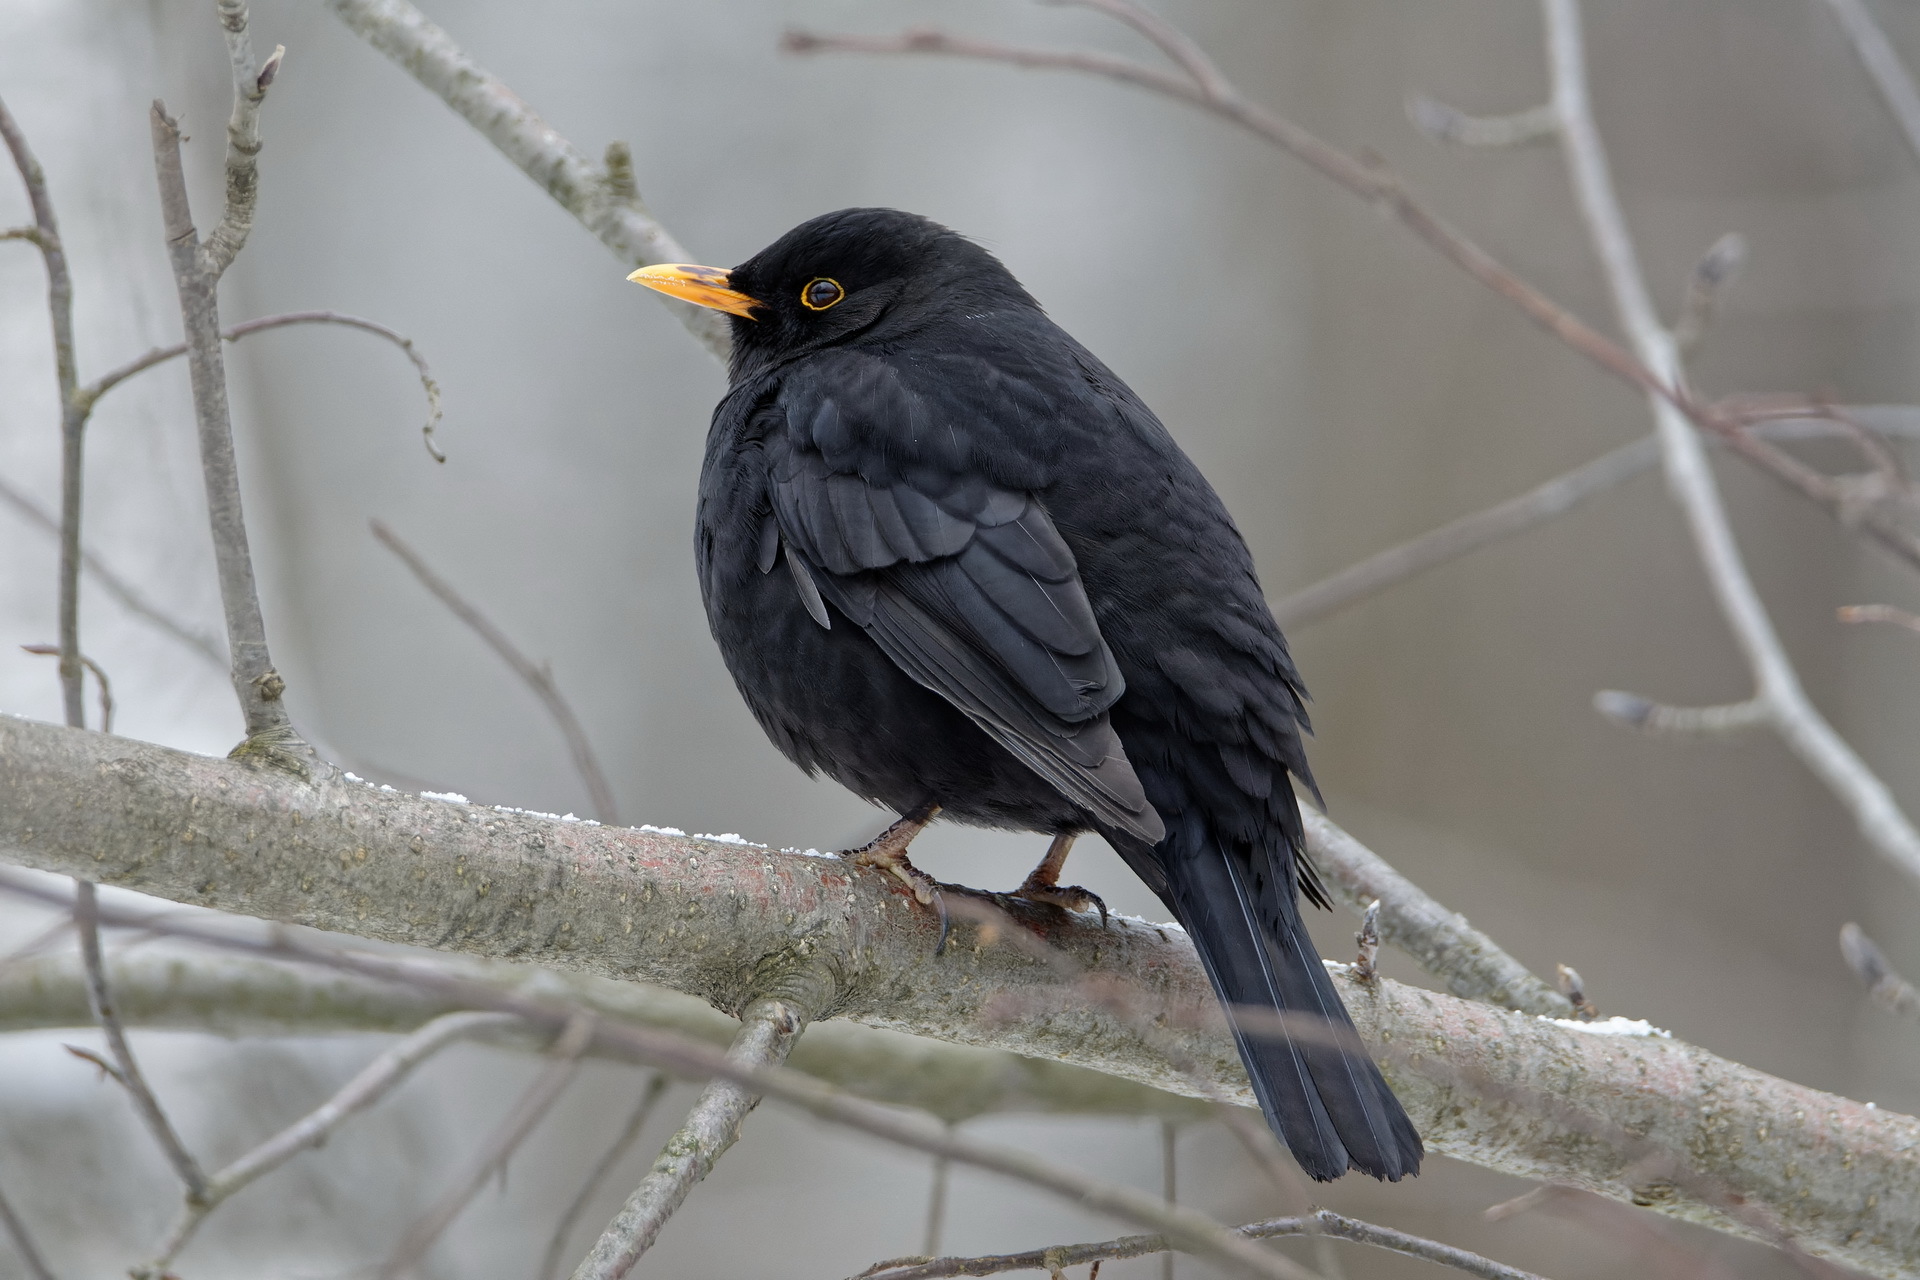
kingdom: Animalia
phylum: Chordata
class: Aves
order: Passeriformes
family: Turdidae
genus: Turdus
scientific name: Turdus merula
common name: Common blackbird
